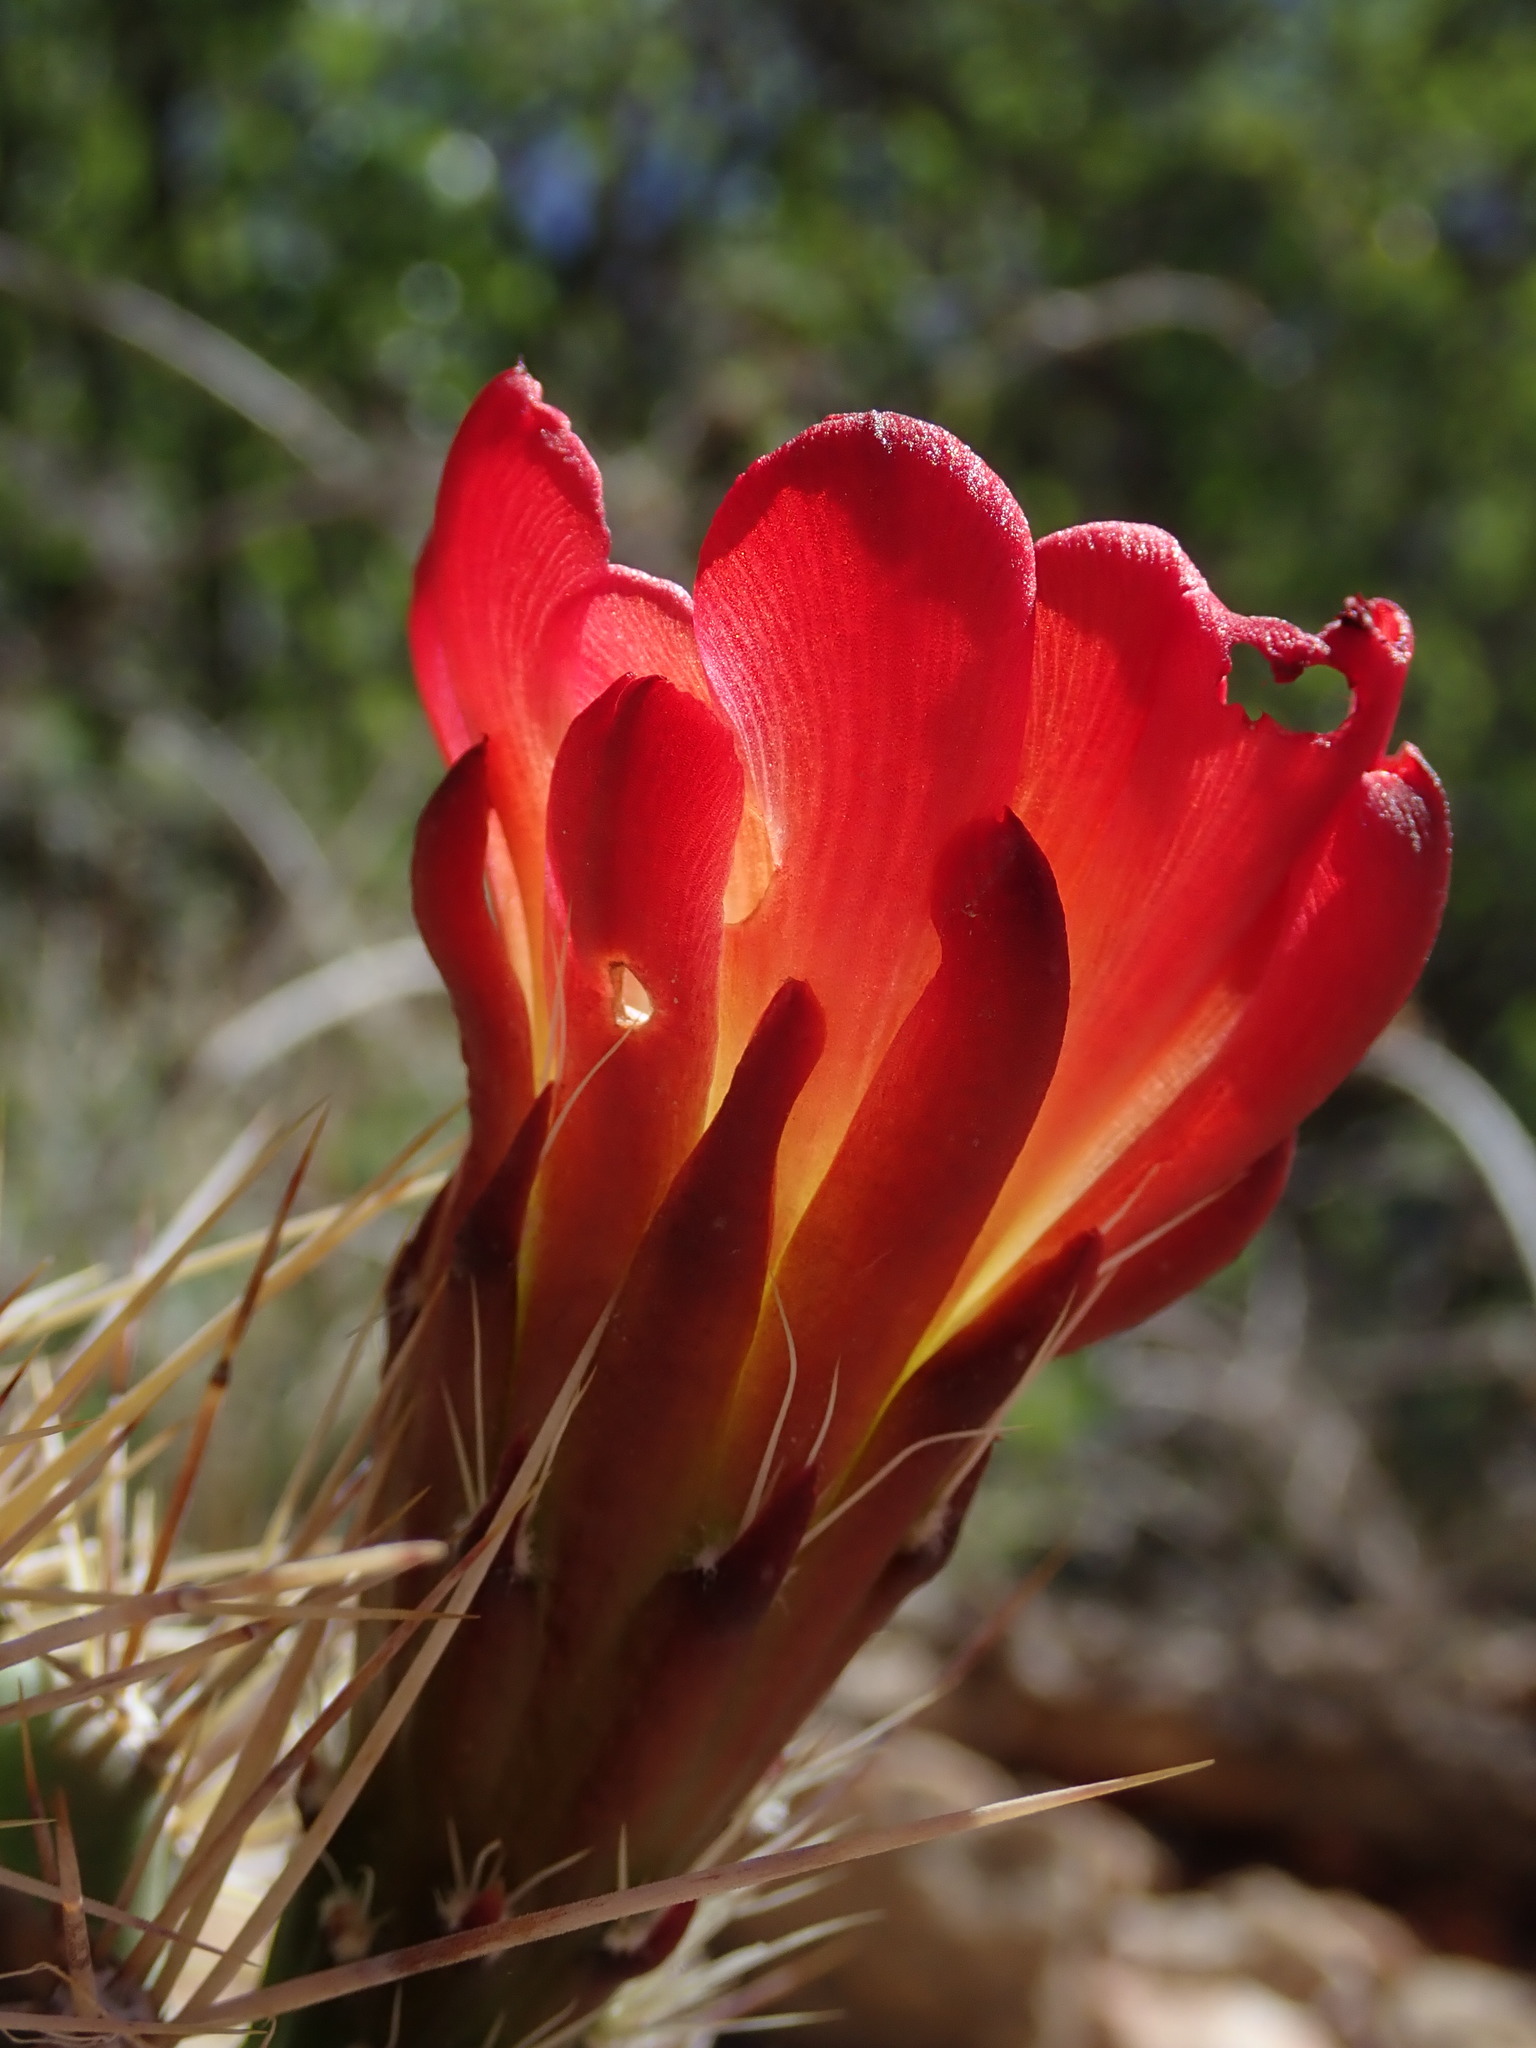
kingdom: Plantae
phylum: Tracheophyta
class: Magnoliopsida
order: Caryophyllales
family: Cactaceae
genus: Echinocereus
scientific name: Echinocereus triglochidiatus
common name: Claretcup hedgehog
